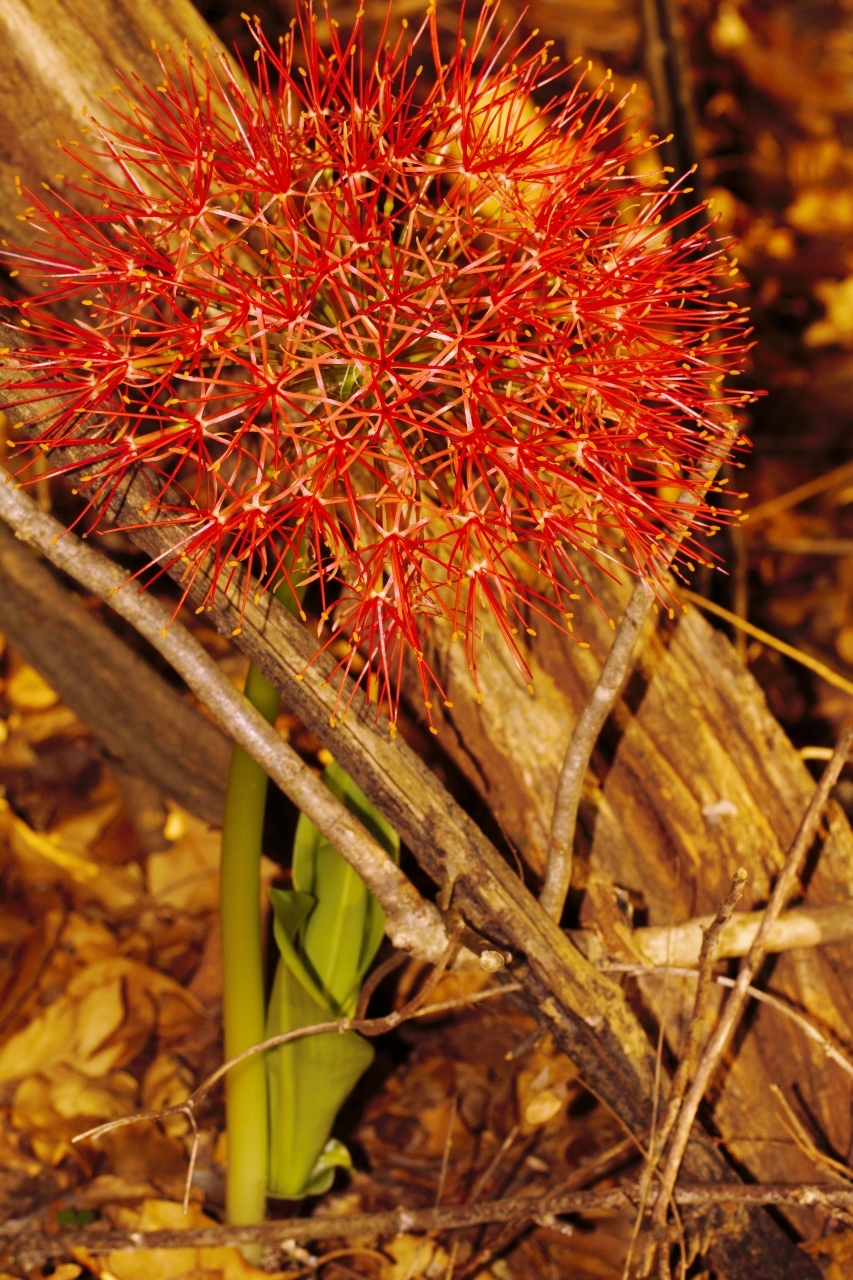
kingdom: Plantae
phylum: Tracheophyta
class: Liliopsida
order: Asparagales
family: Amaryllidaceae
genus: Scadoxus
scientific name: Scadoxus multiflorus
